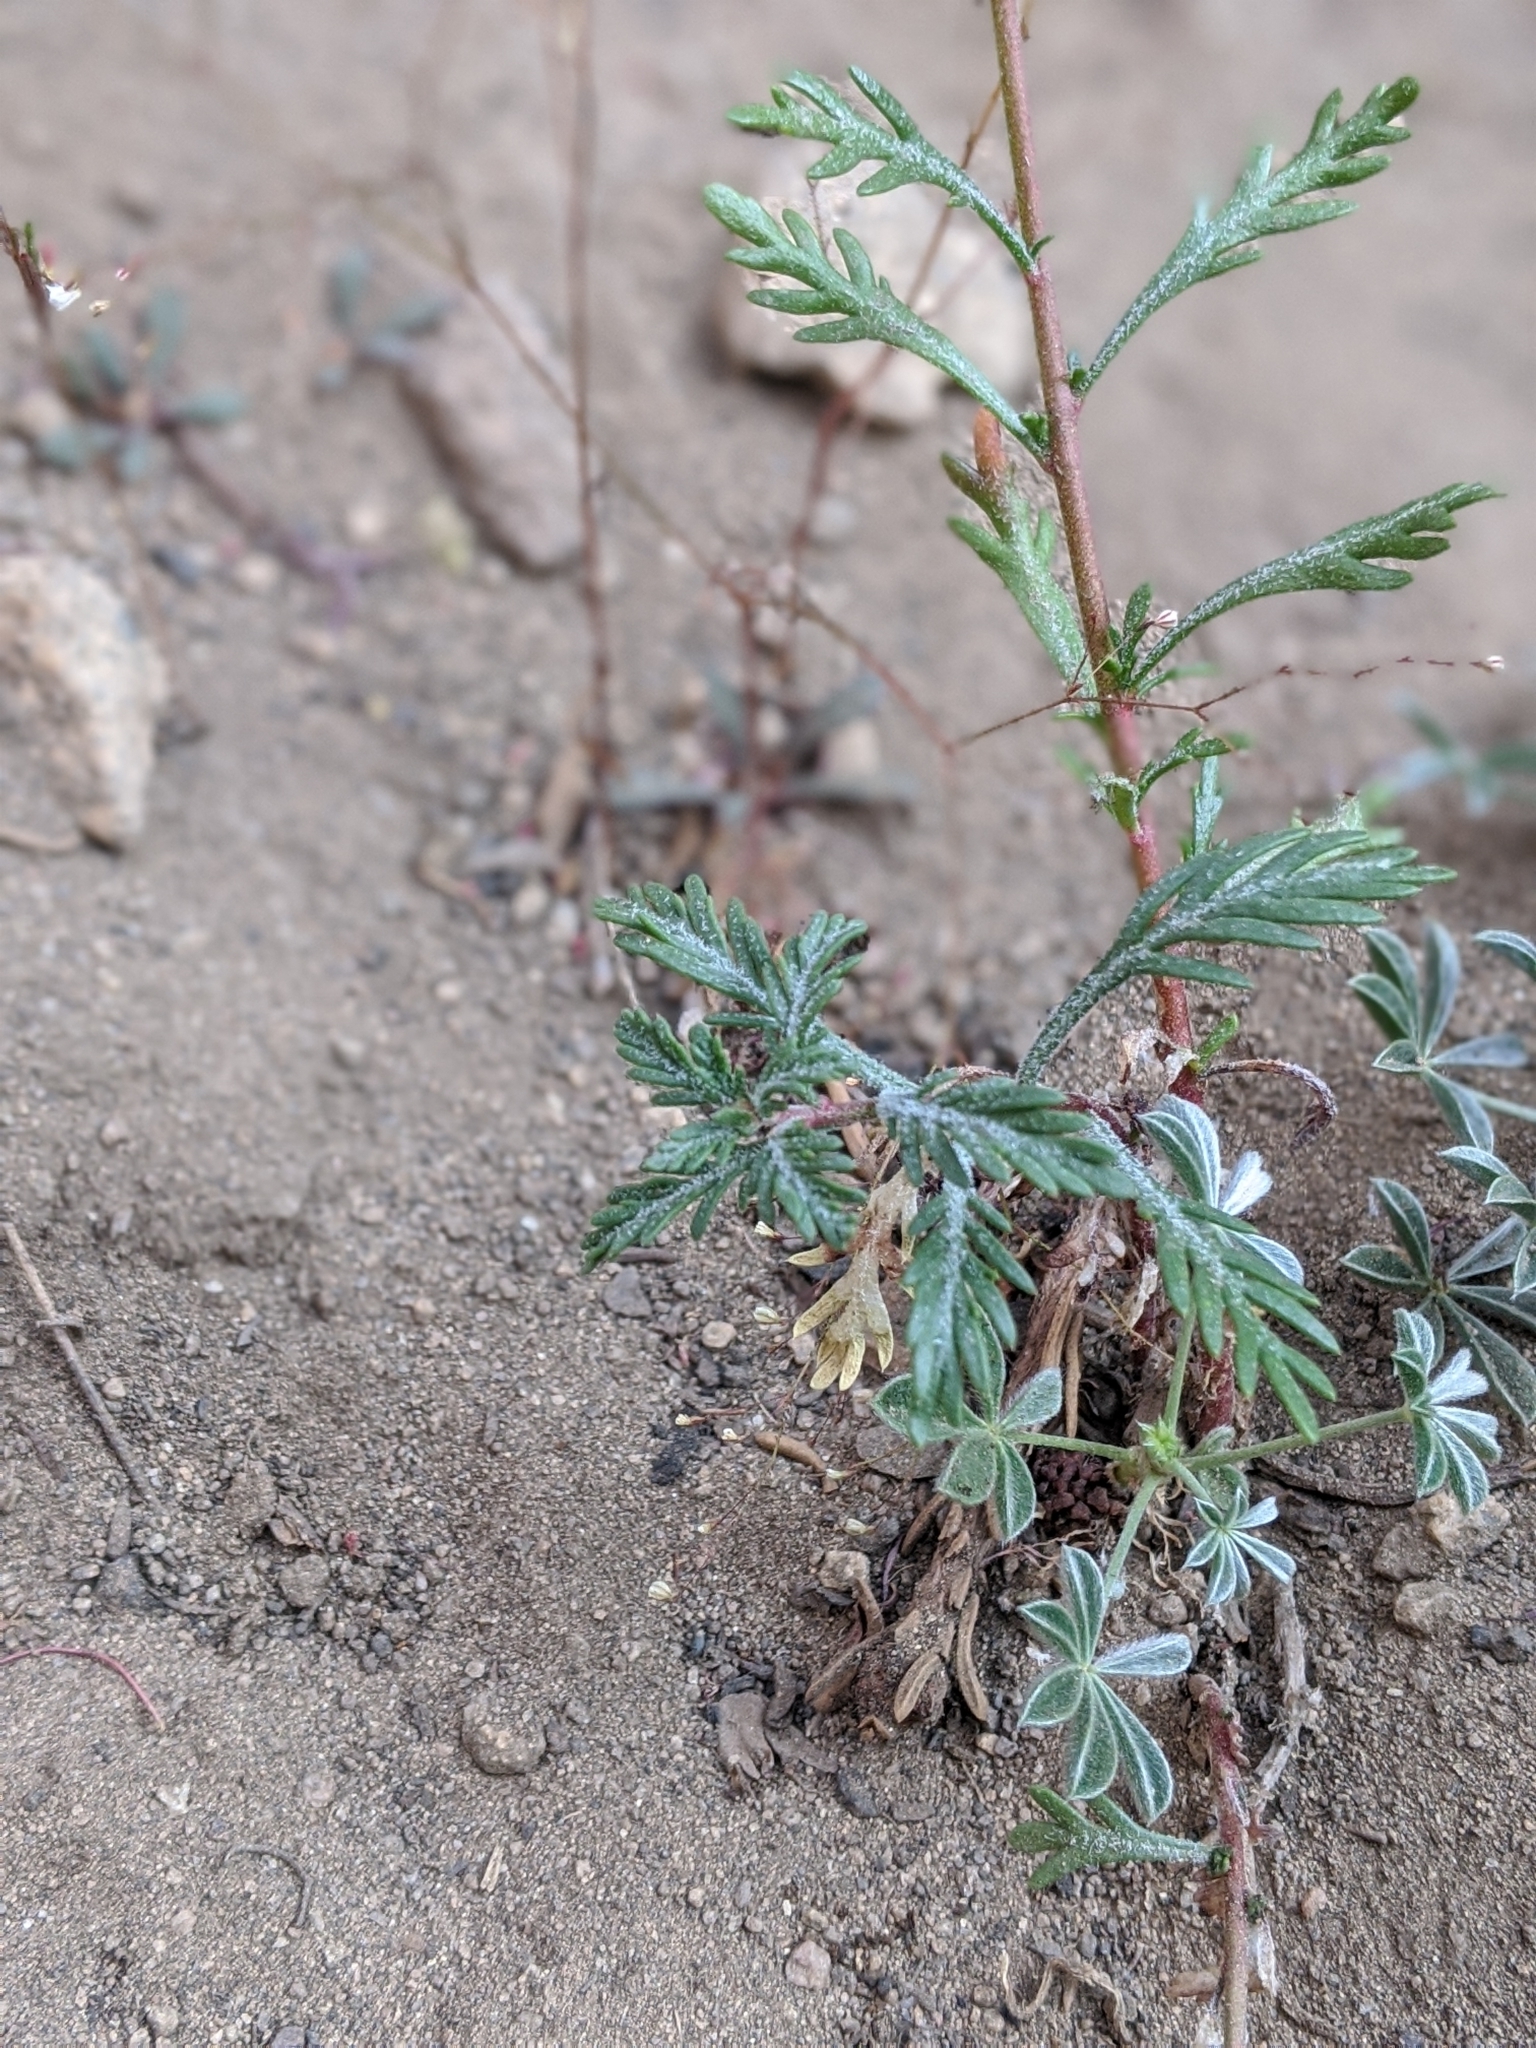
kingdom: Plantae
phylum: Tracheophyta
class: Magnoliopsida
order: Ericales
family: Polemoniaceae
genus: Ipomopsis
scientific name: Ipomopsis aggregata
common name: Scarlet gilia
